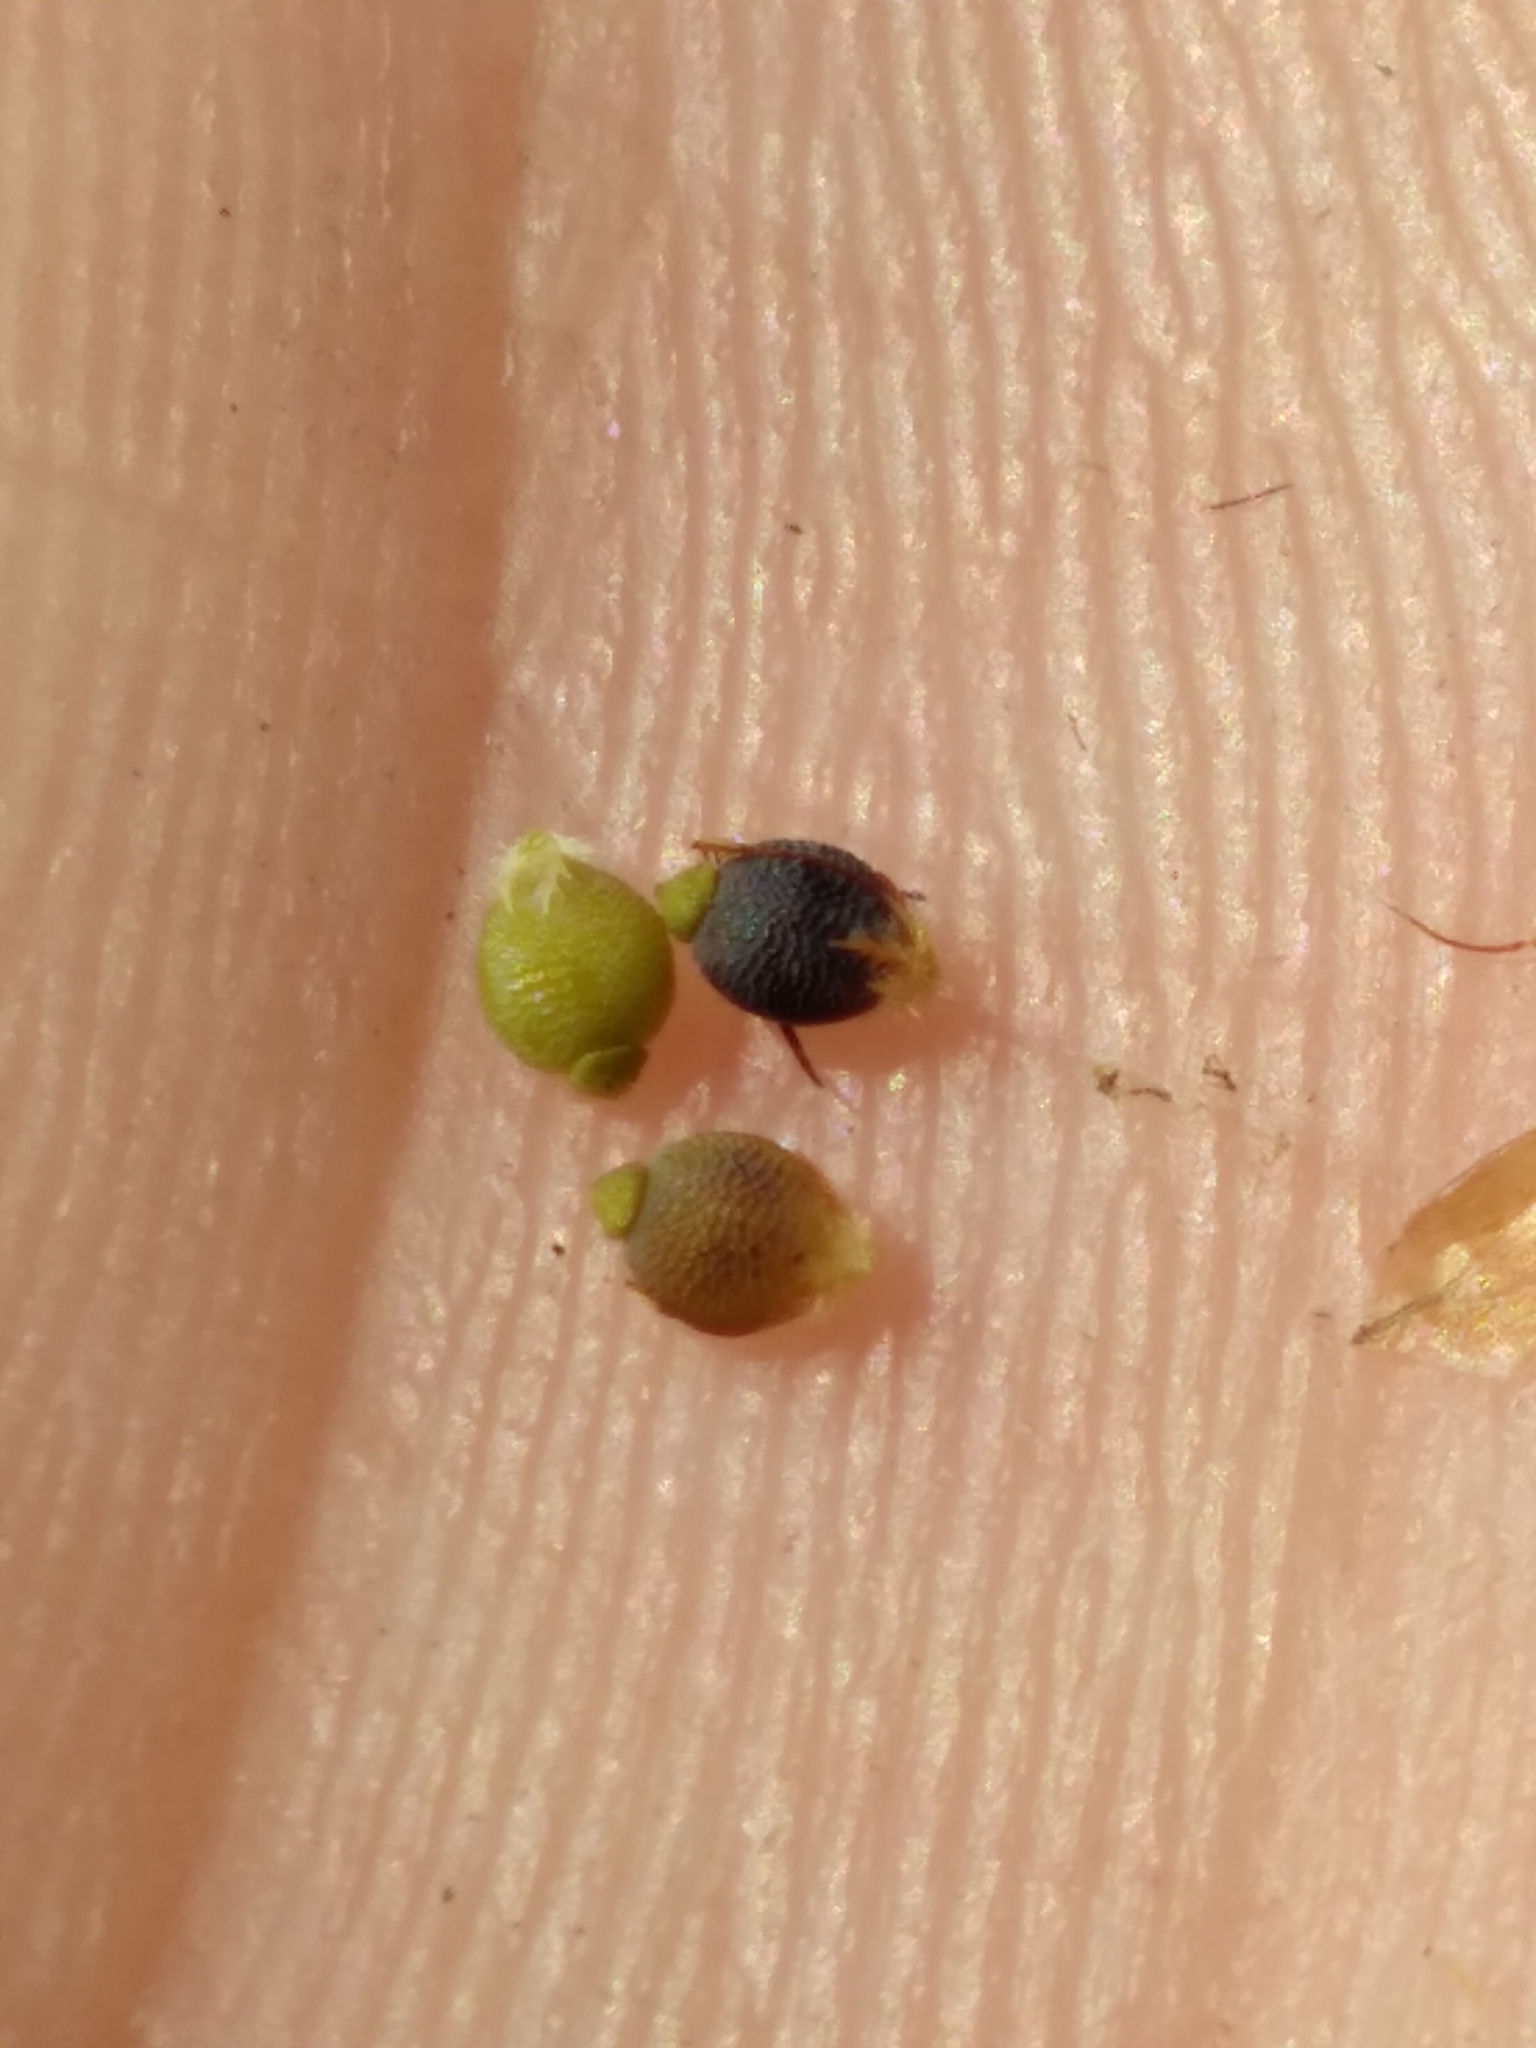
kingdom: Plantae
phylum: Tracheophyta
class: Liliopsida
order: Poales
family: Cyperaceae
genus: Rhynchospora
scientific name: Rhynchospora galeana
